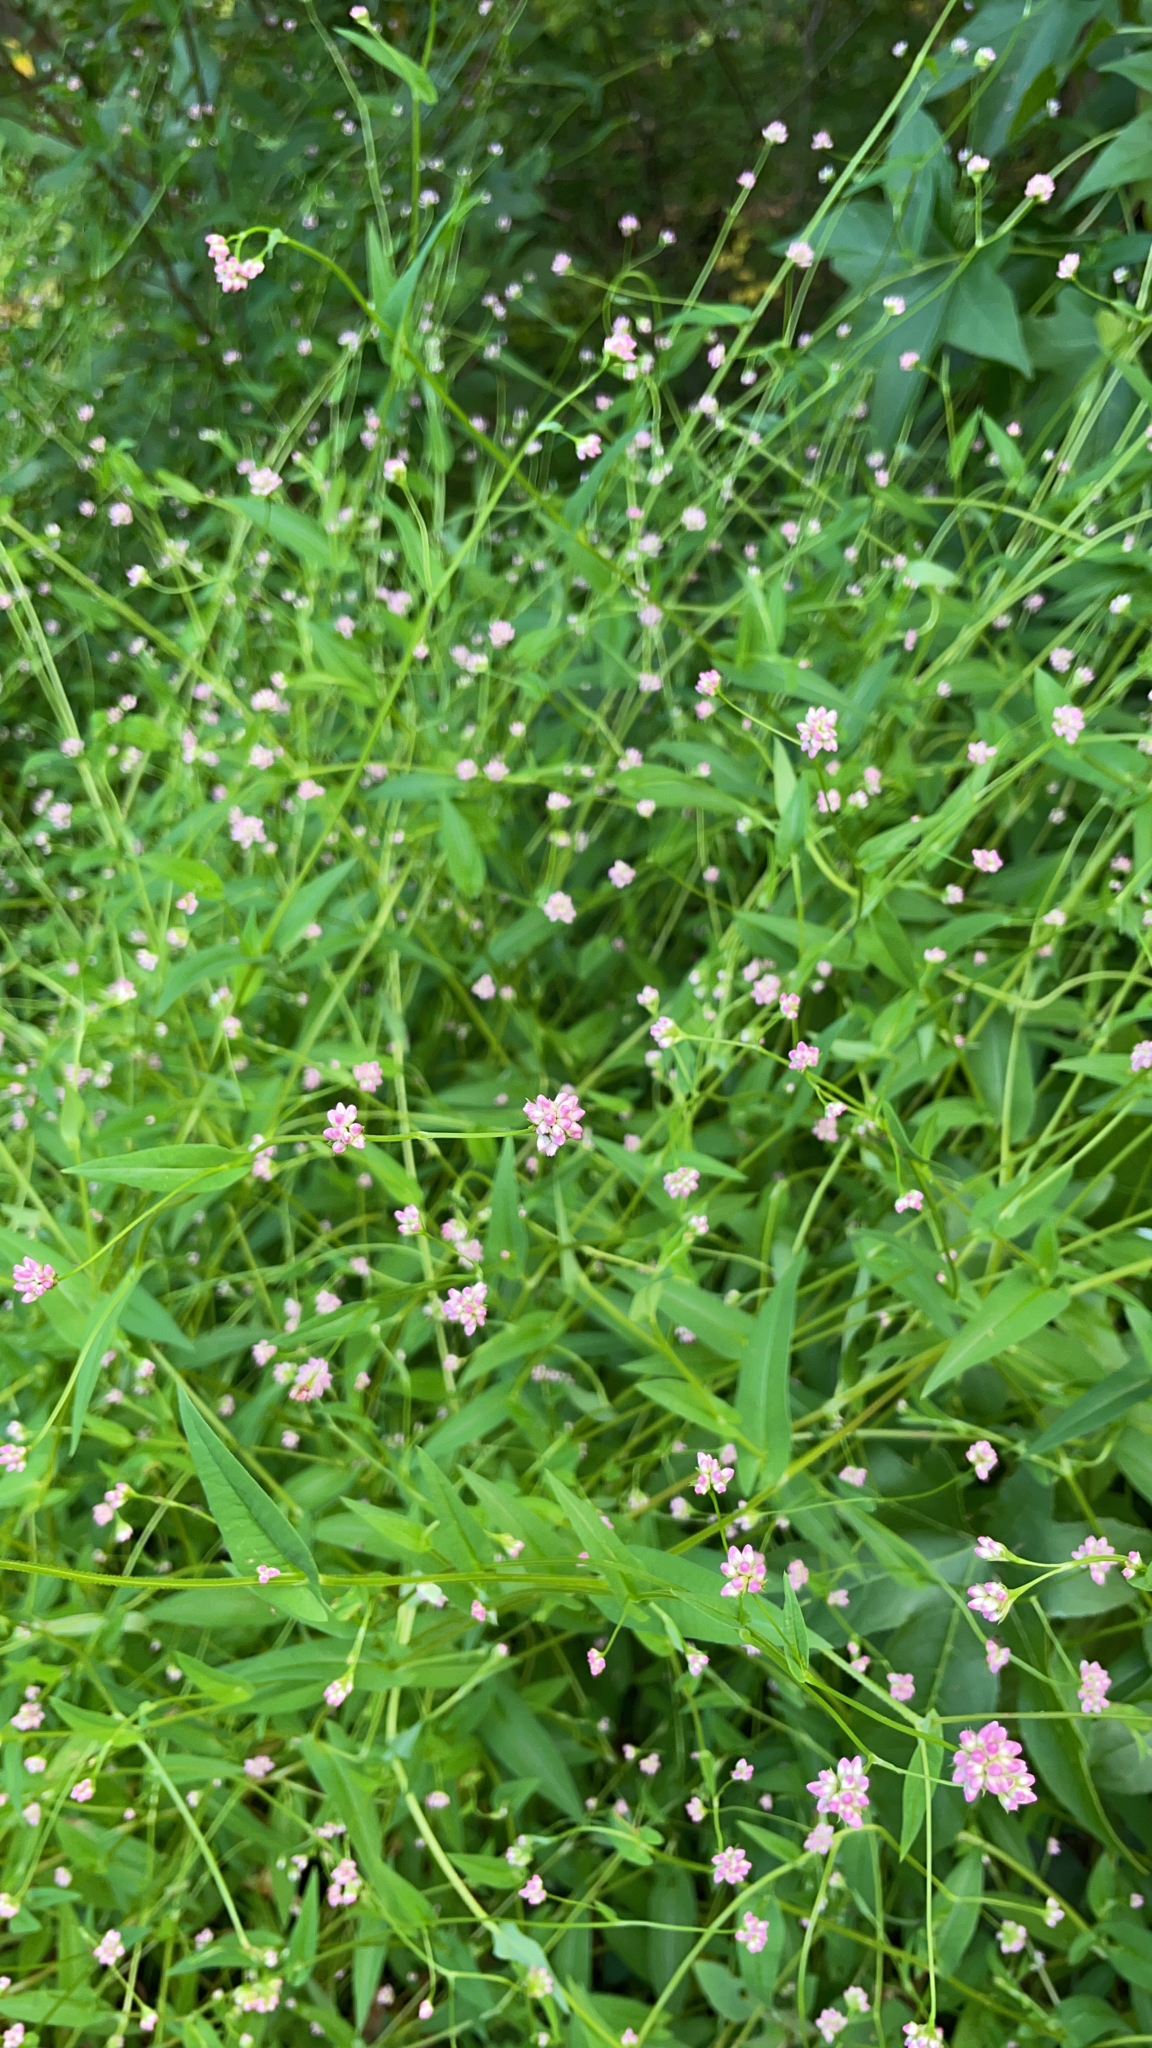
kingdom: Plantae
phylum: Tracheophyta
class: Magnoliopsida
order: Caryophyllales
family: Polygonaceae
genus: Persicaria
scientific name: Persicaria sagittata
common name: American tearthumb
